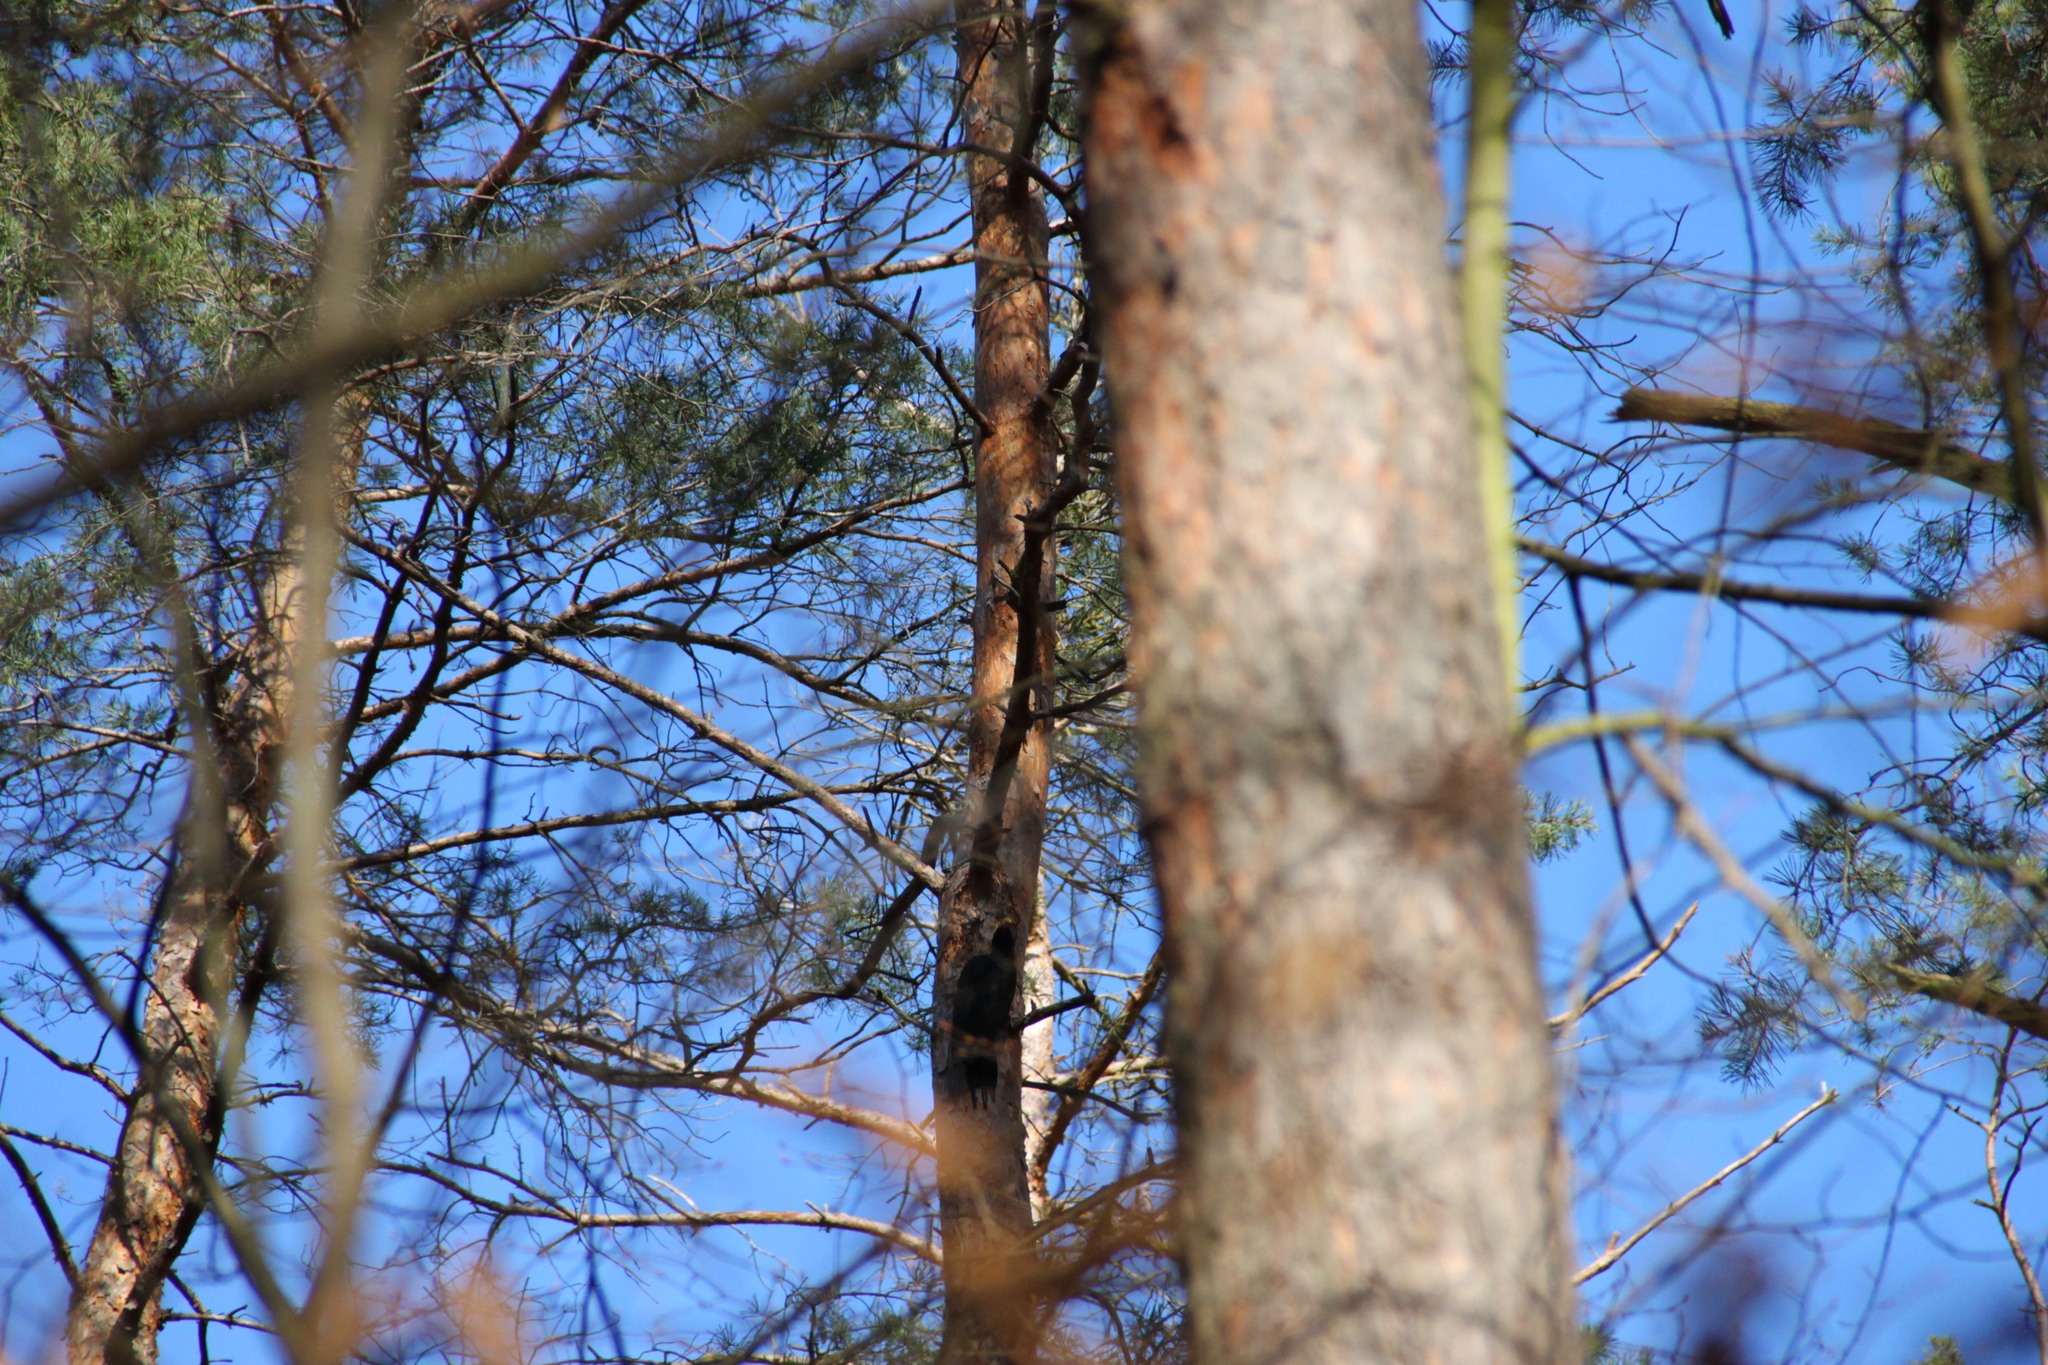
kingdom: Animalia
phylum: Chordata
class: Aves
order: Piciformes
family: Picidae
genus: Dryocopus
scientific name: Dryocopus martius
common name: Black woodpecker
